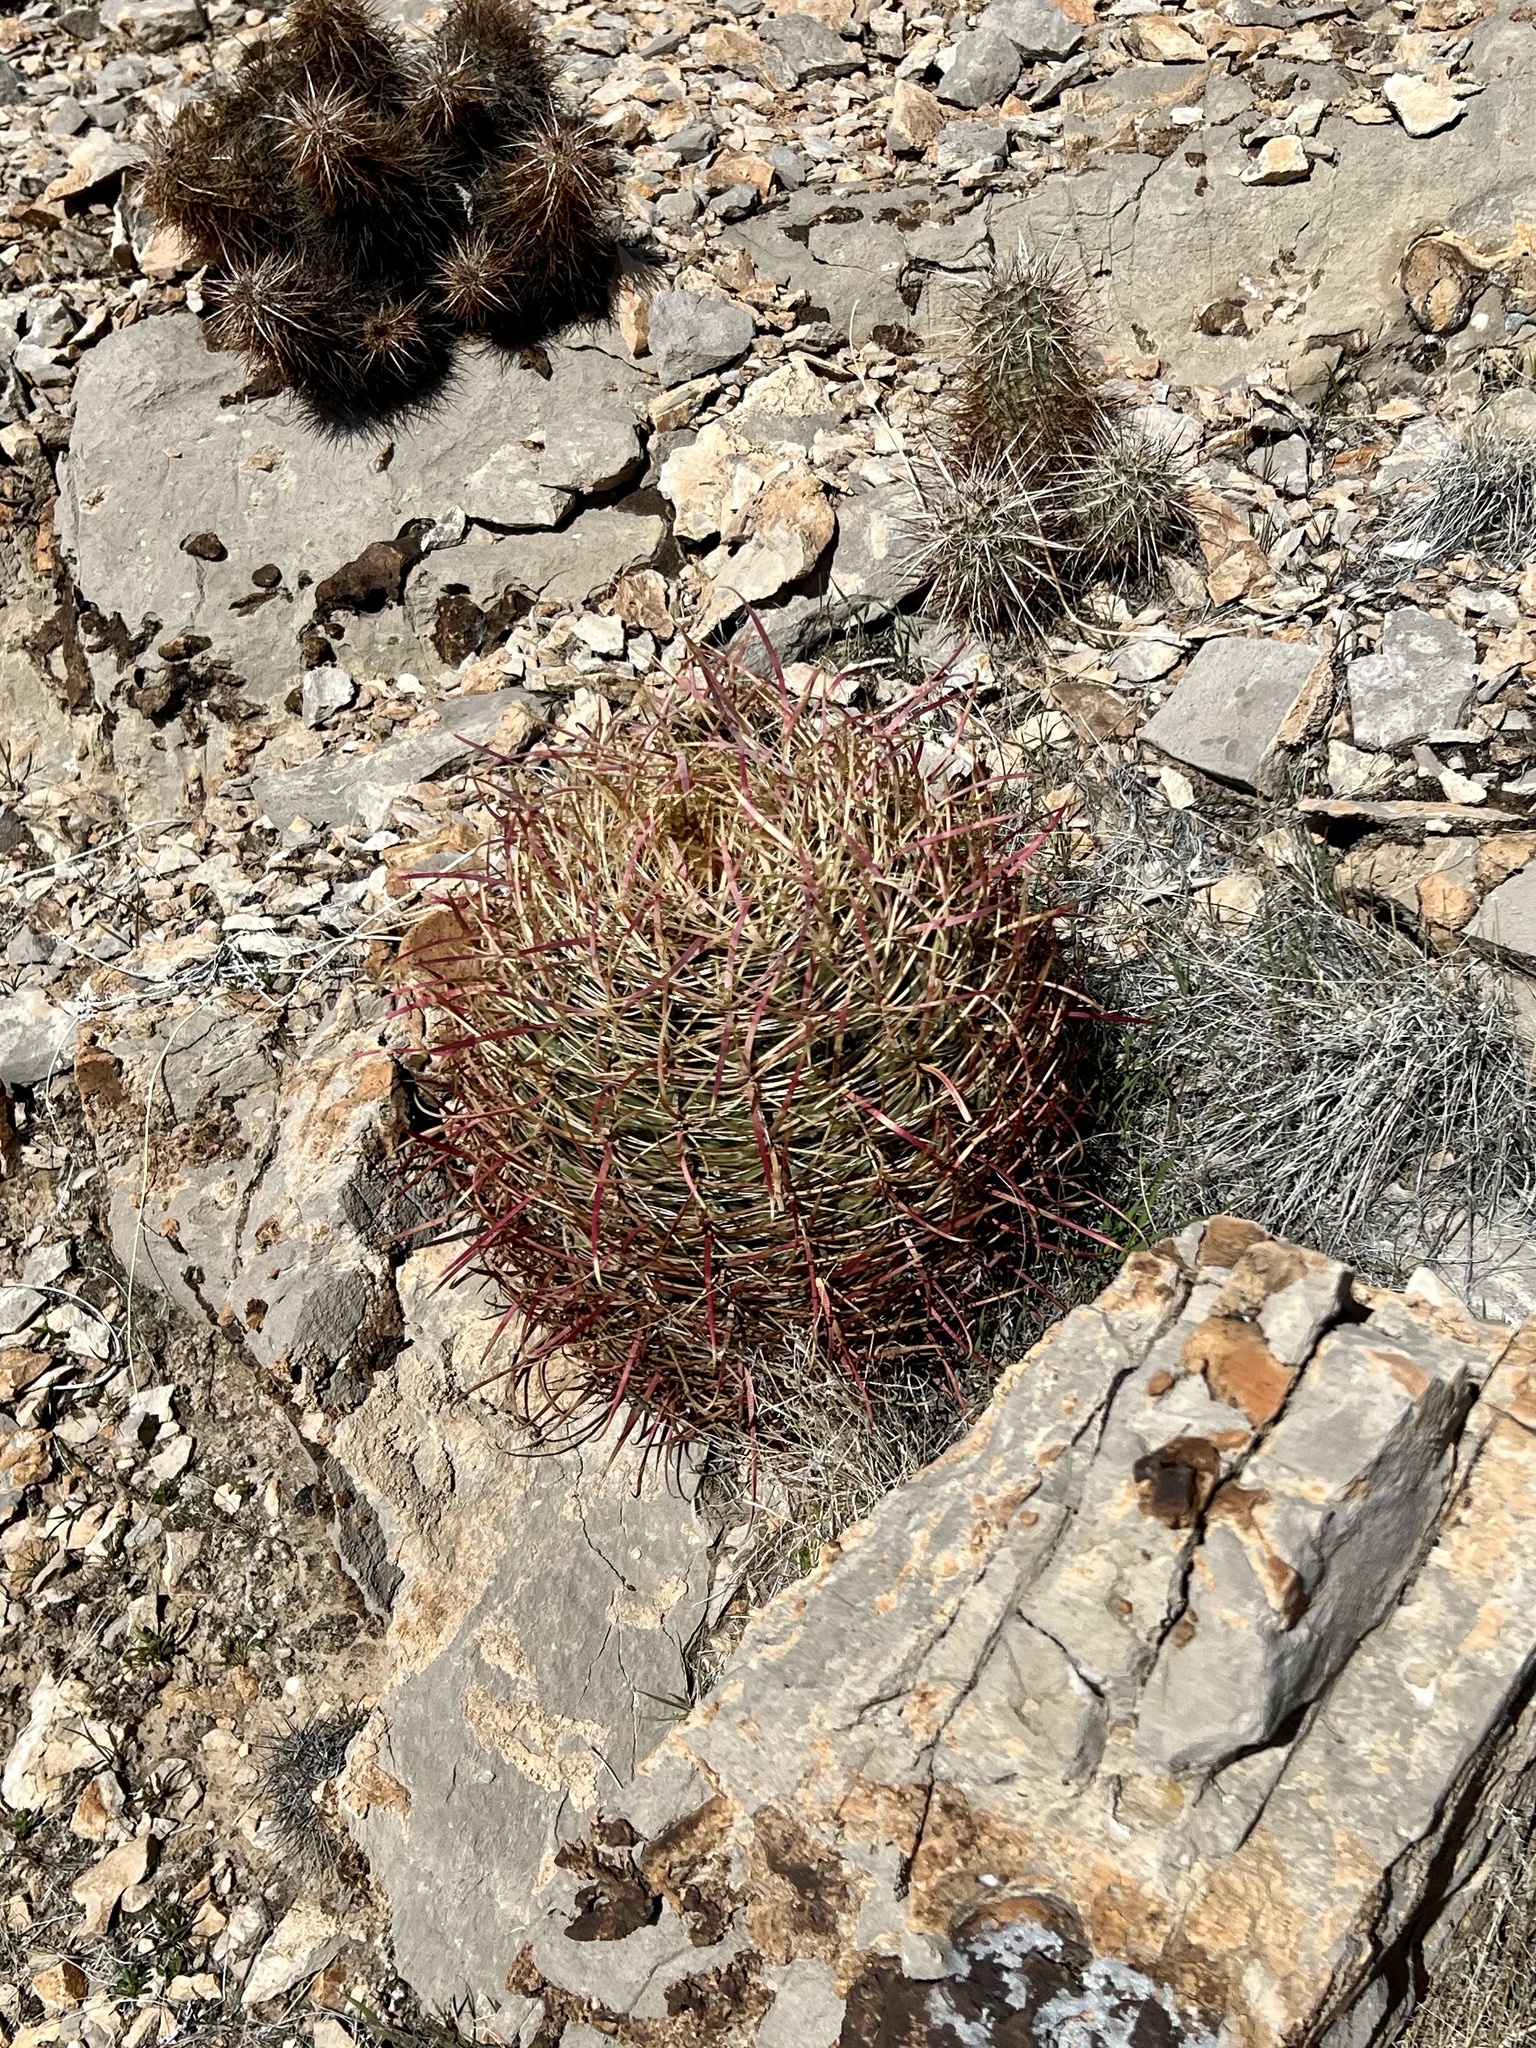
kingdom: Plantae
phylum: Tracheophyta
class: Magnoliopsida
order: Caryophyllales
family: Cactaceae
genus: Ferocactus
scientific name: Ferocactus cylindraceus
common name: California barrel cactus
